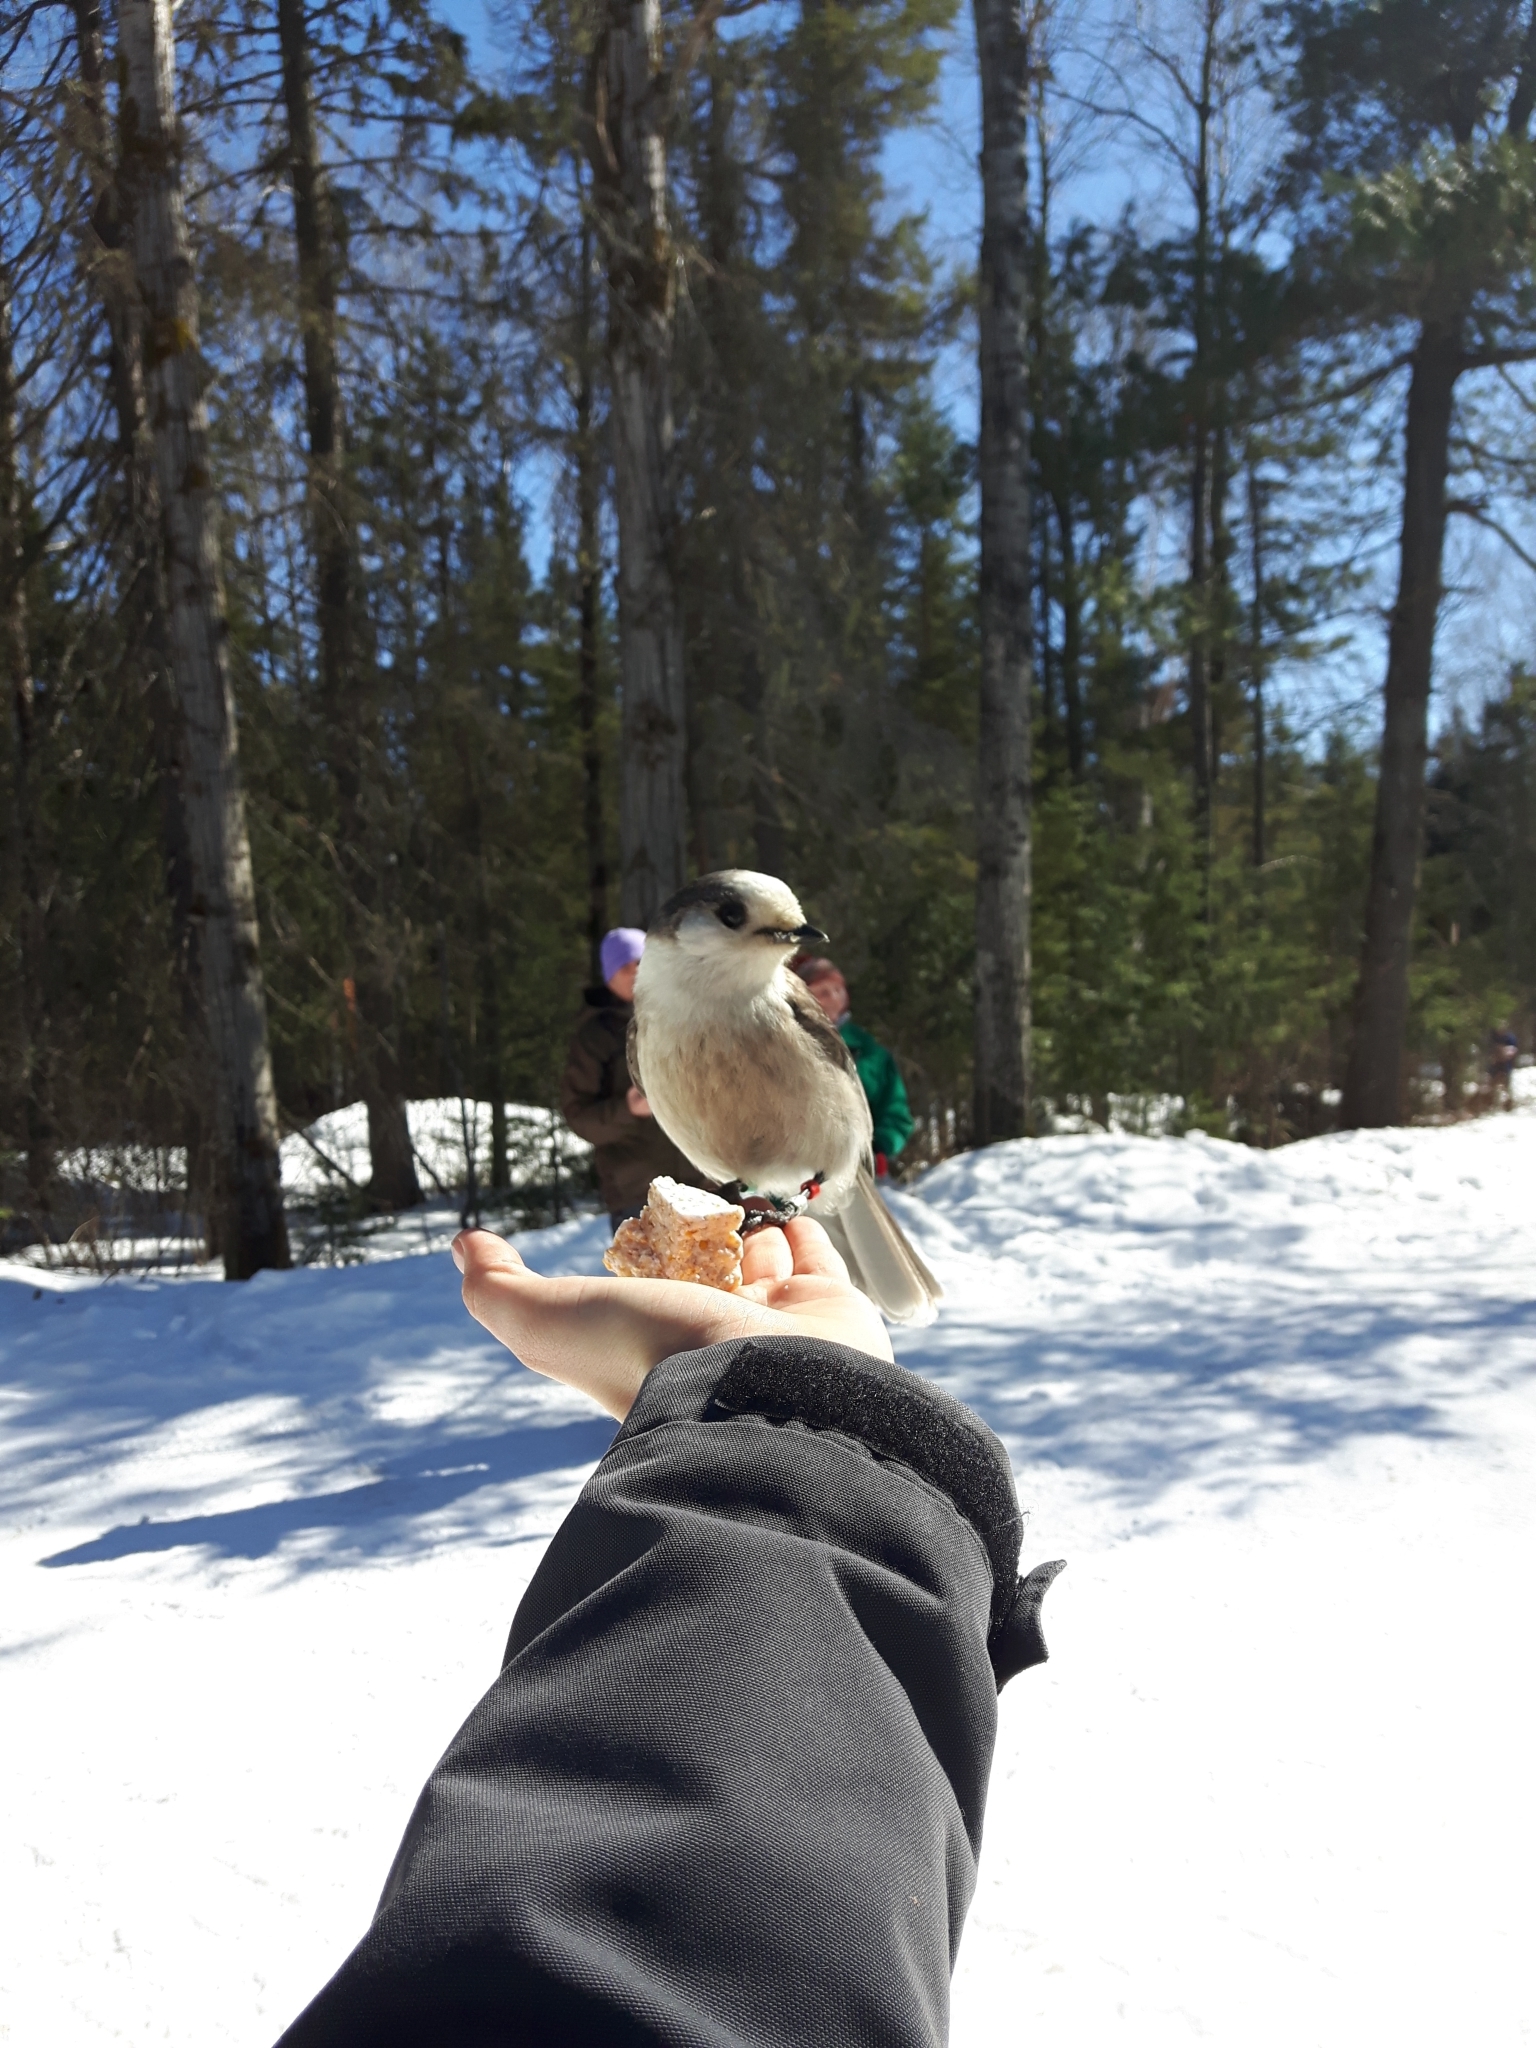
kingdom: Animalia
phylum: Chordata
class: Aves
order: Passeriformes
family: Corvidae
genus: Perisoreus
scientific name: Perisoreus canadensis
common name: Gray jay
